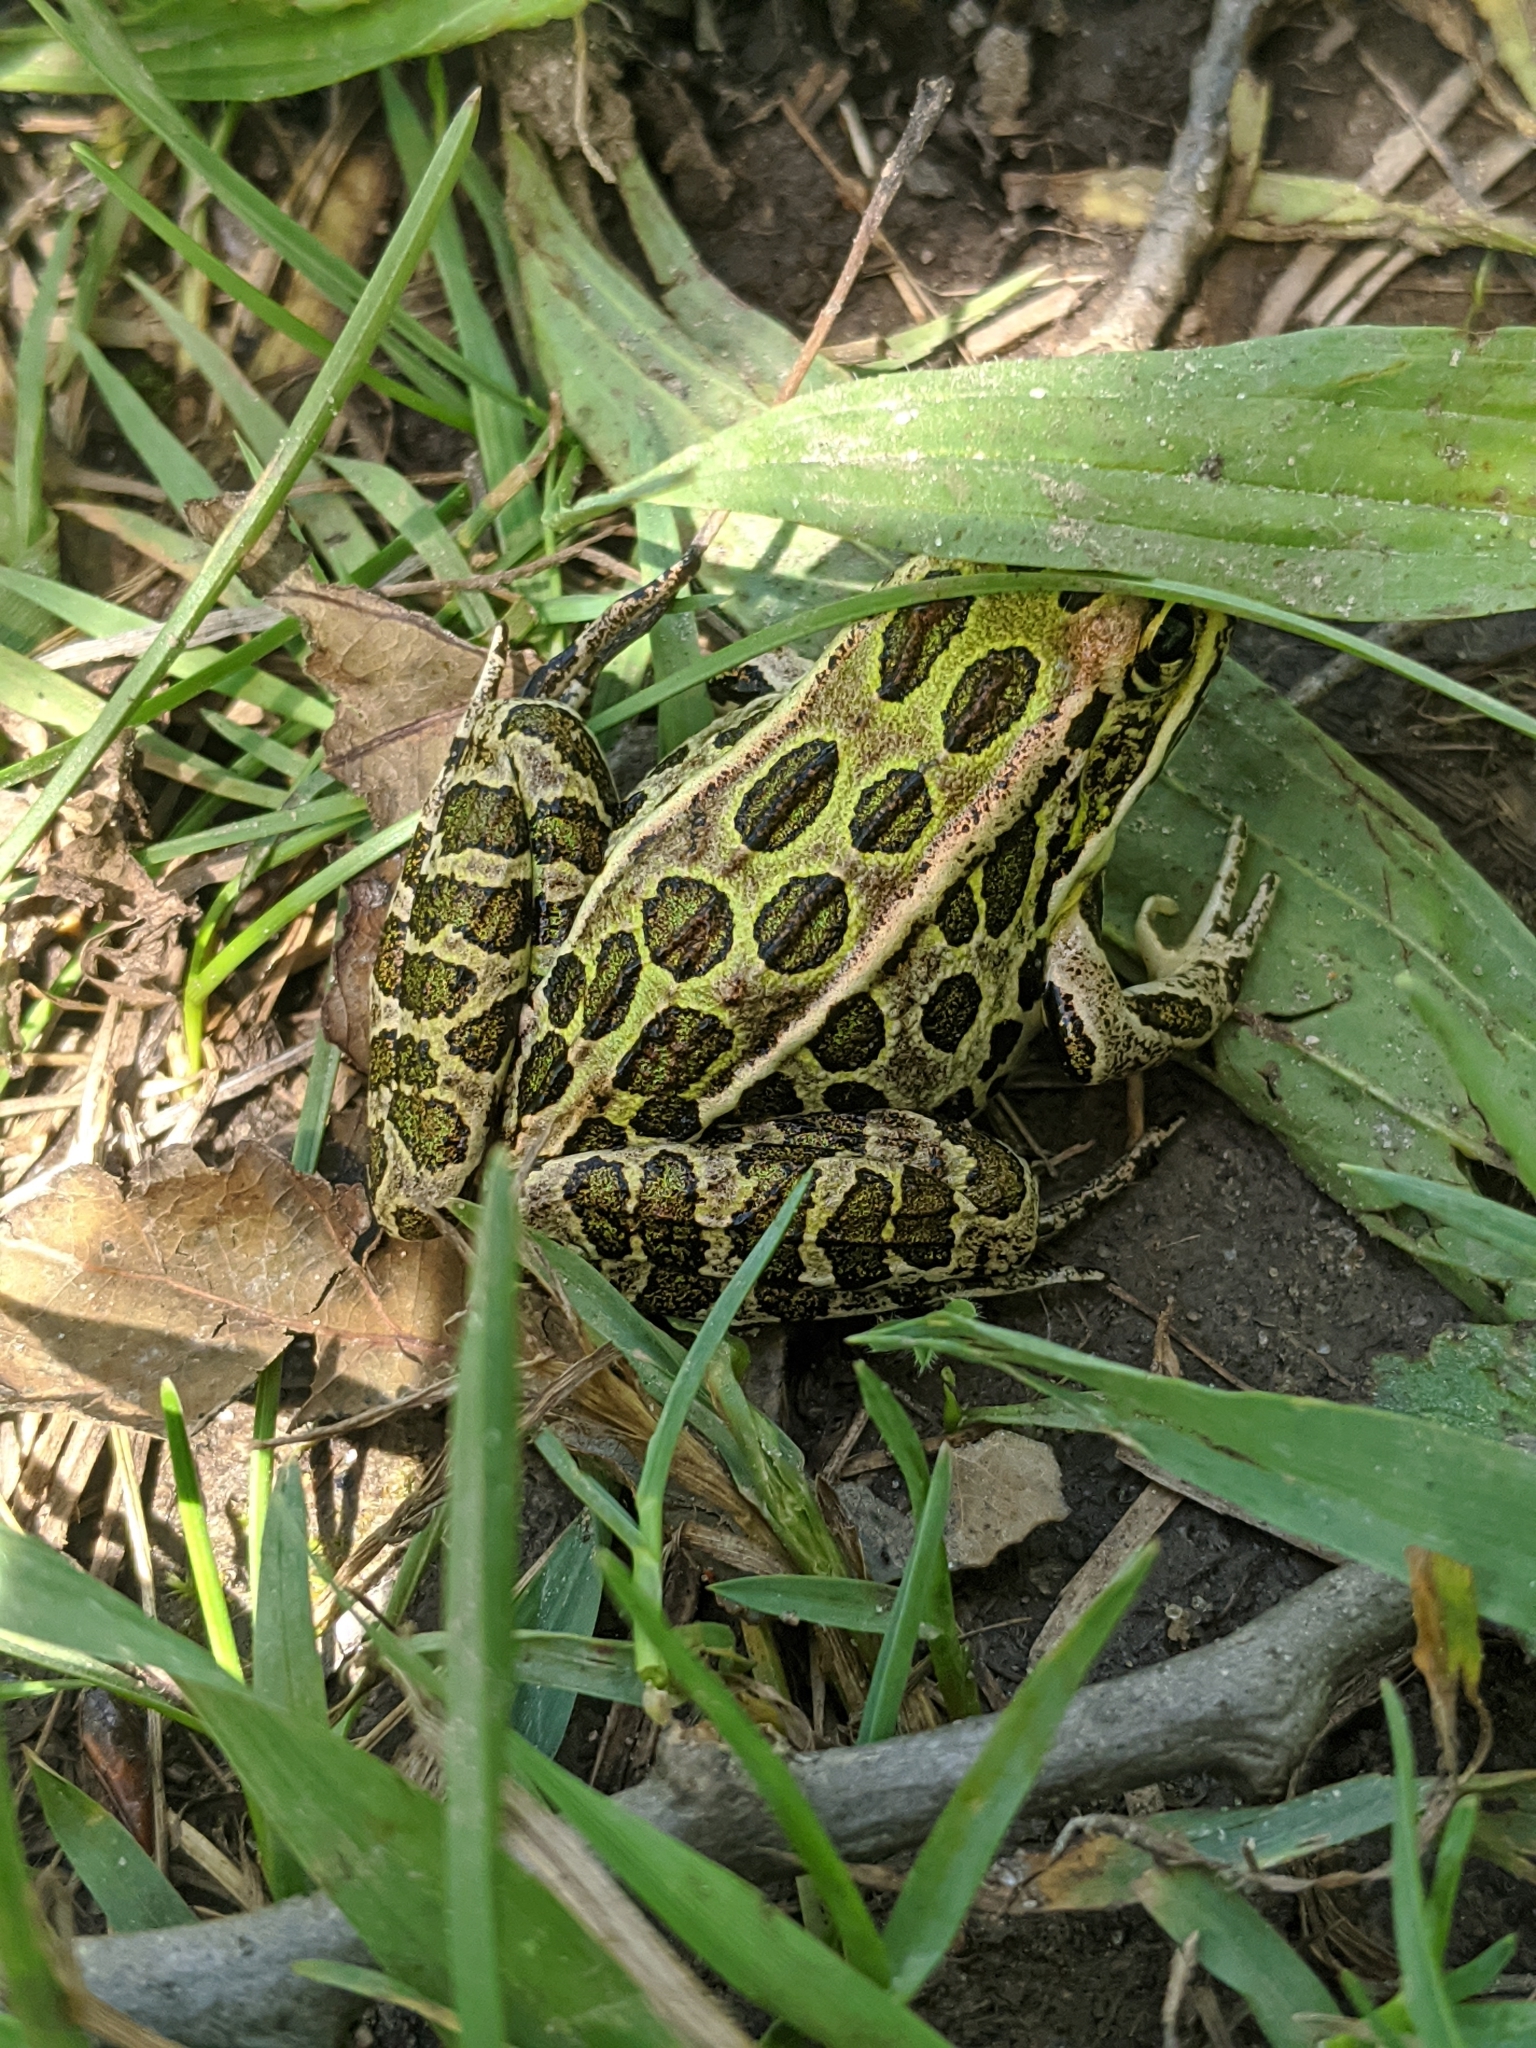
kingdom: Animalia
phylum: Chordata
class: Amphibia
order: Anura
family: Ranidae
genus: Lithobates
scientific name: Lithobates pipiens
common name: Northern leopard frog
